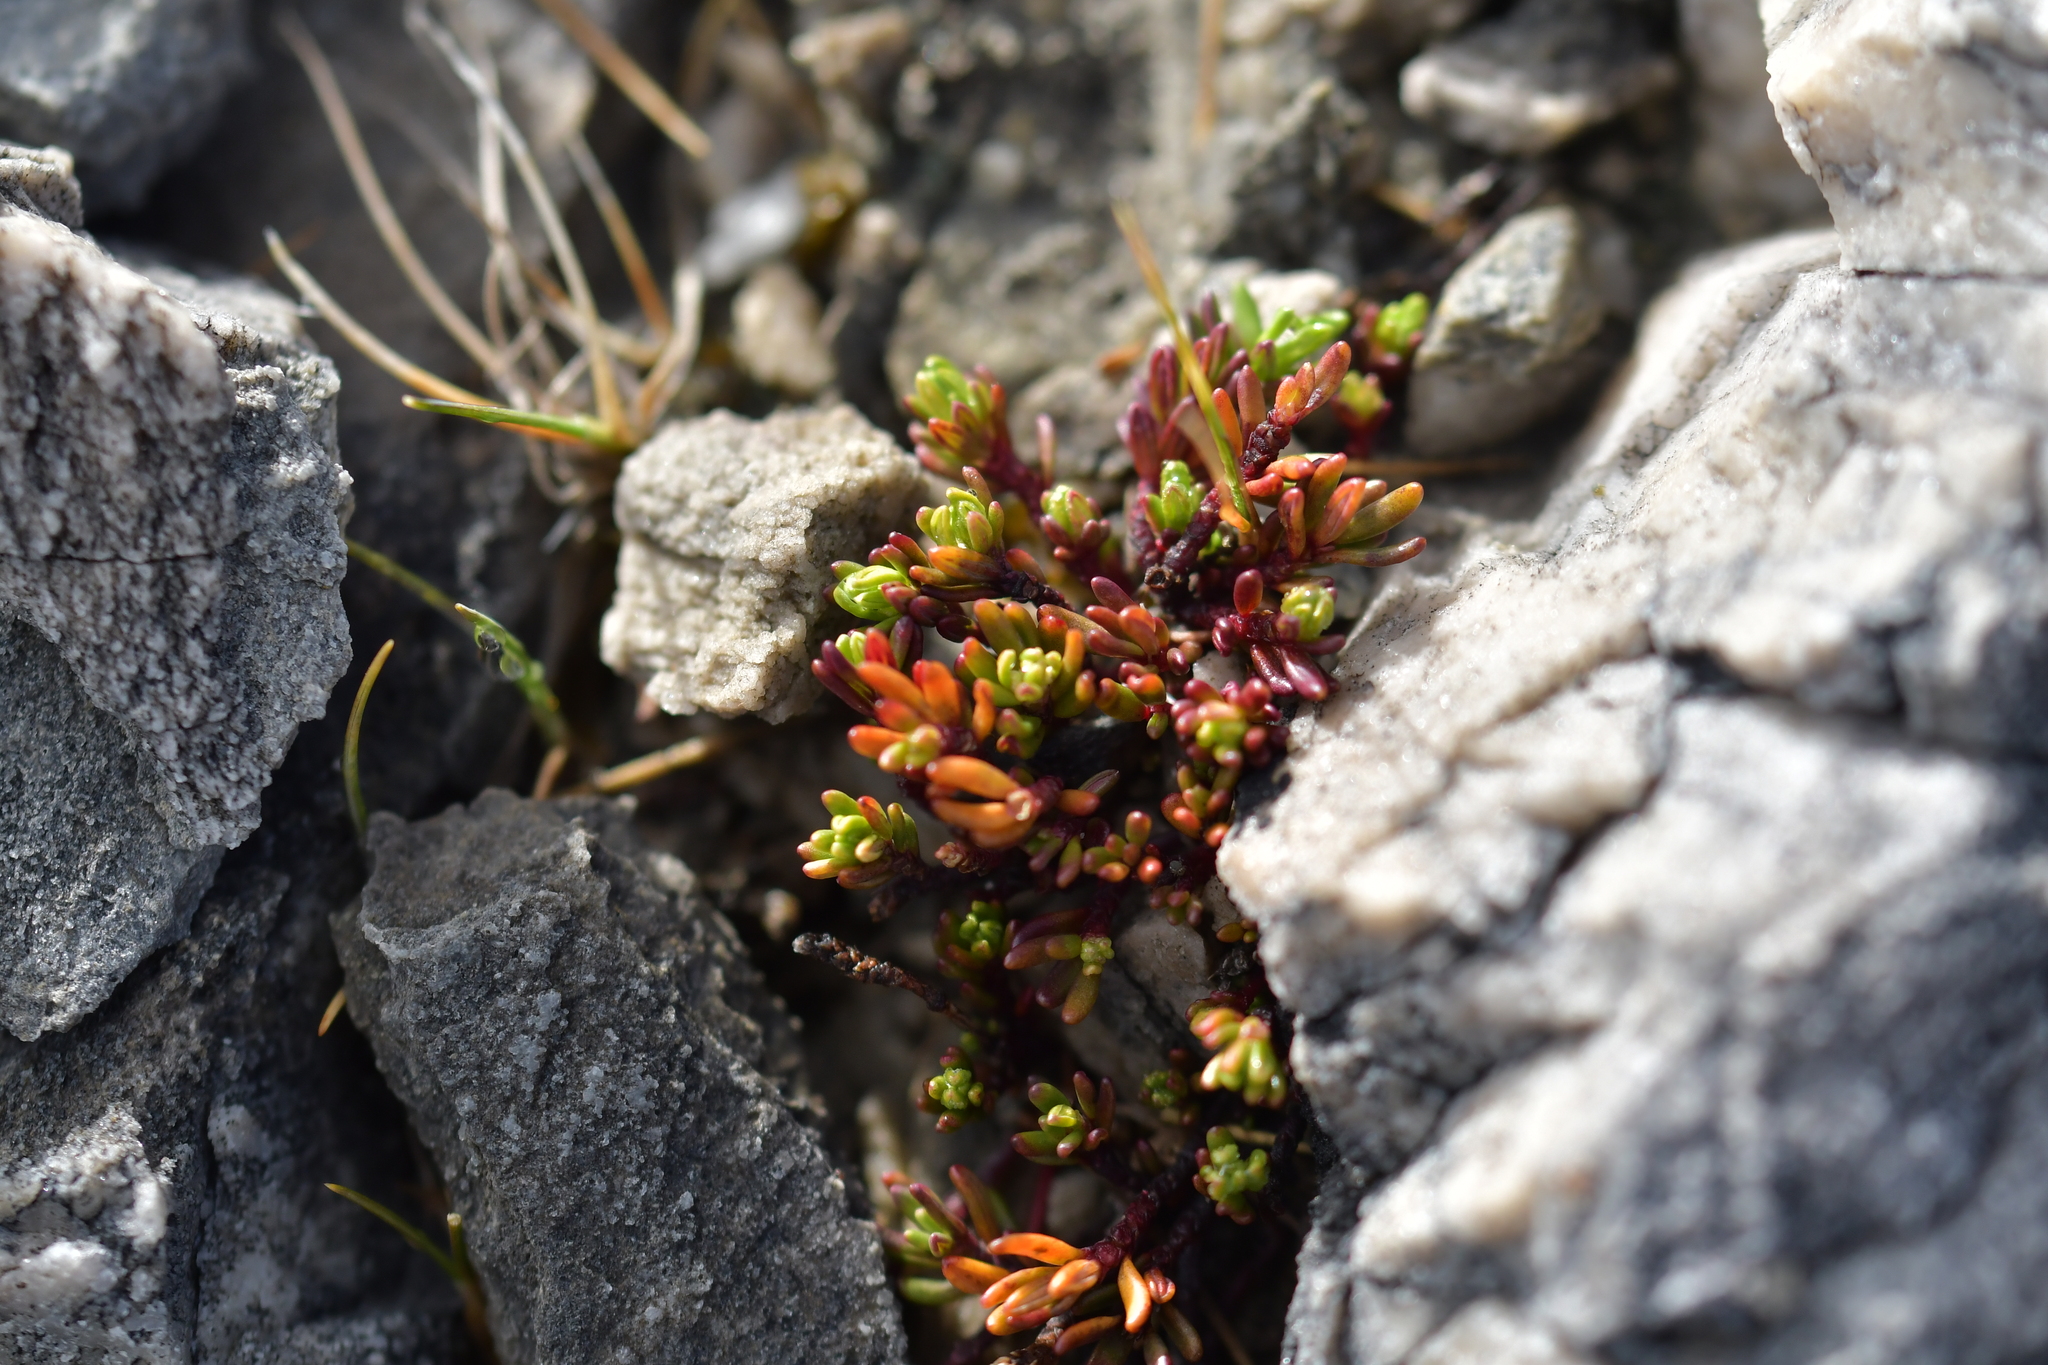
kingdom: Plantae
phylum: Tracheophyta
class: Magnoliopsida
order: Malpighiales
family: Phyllanthaceae
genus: Poranthera
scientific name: Poranthera alpina
